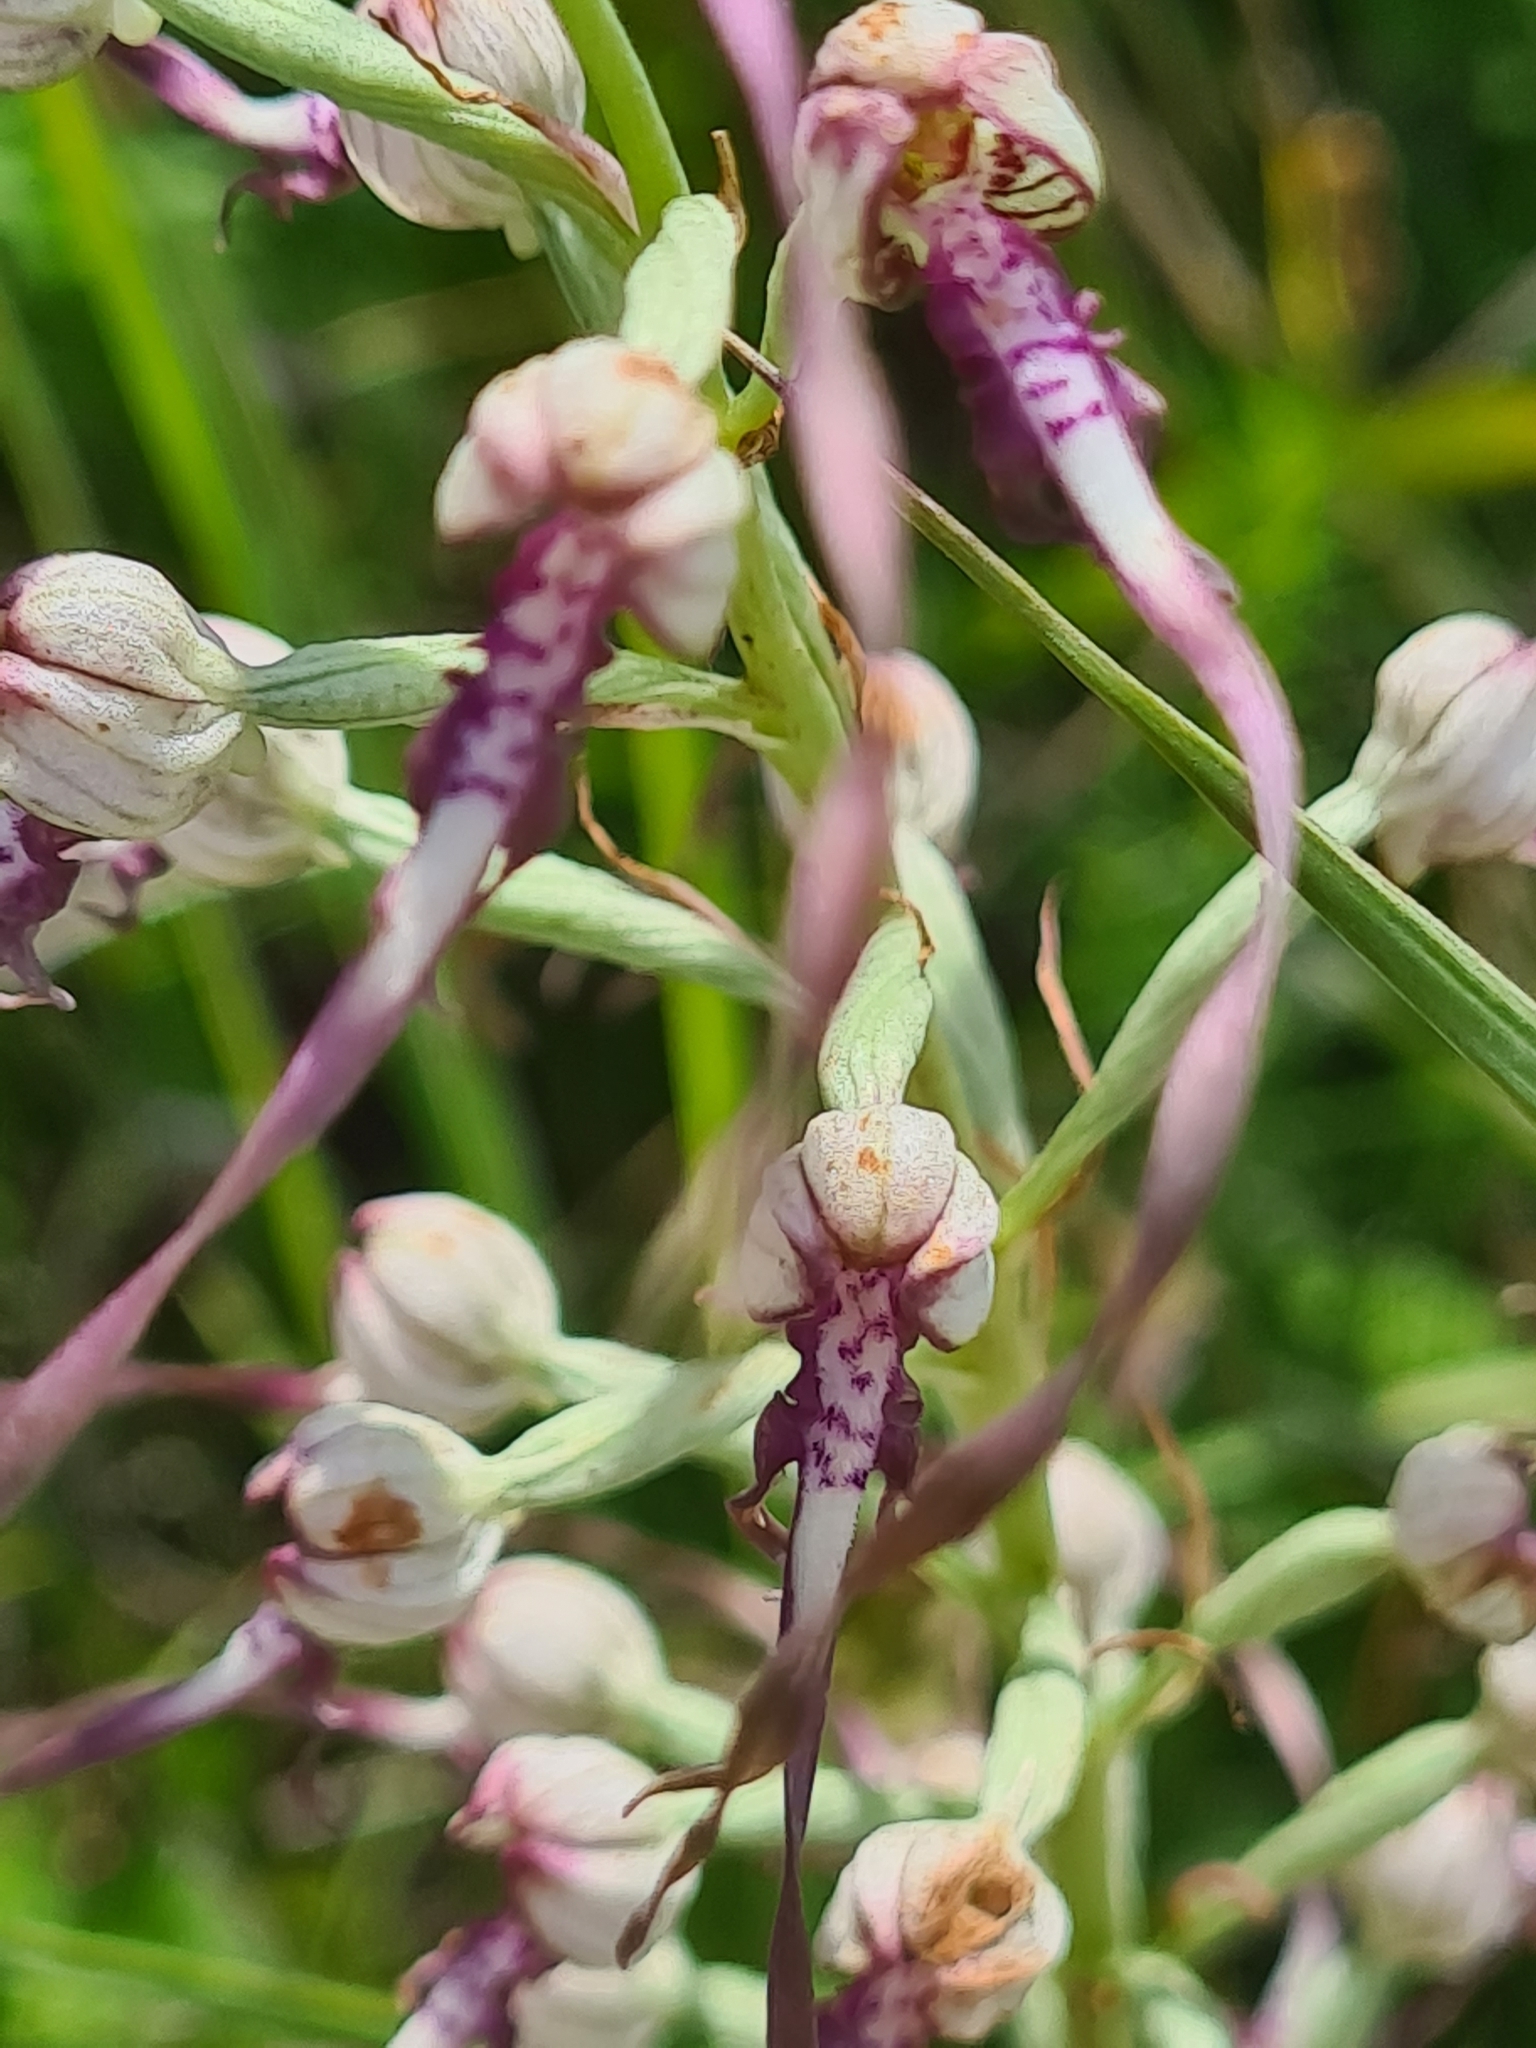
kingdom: Plantae
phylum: Tracheophyta
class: Liliopsida
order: Asparagales
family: Orchidaceae
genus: Himantoglossum
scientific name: Himantoglossum adriaticum
